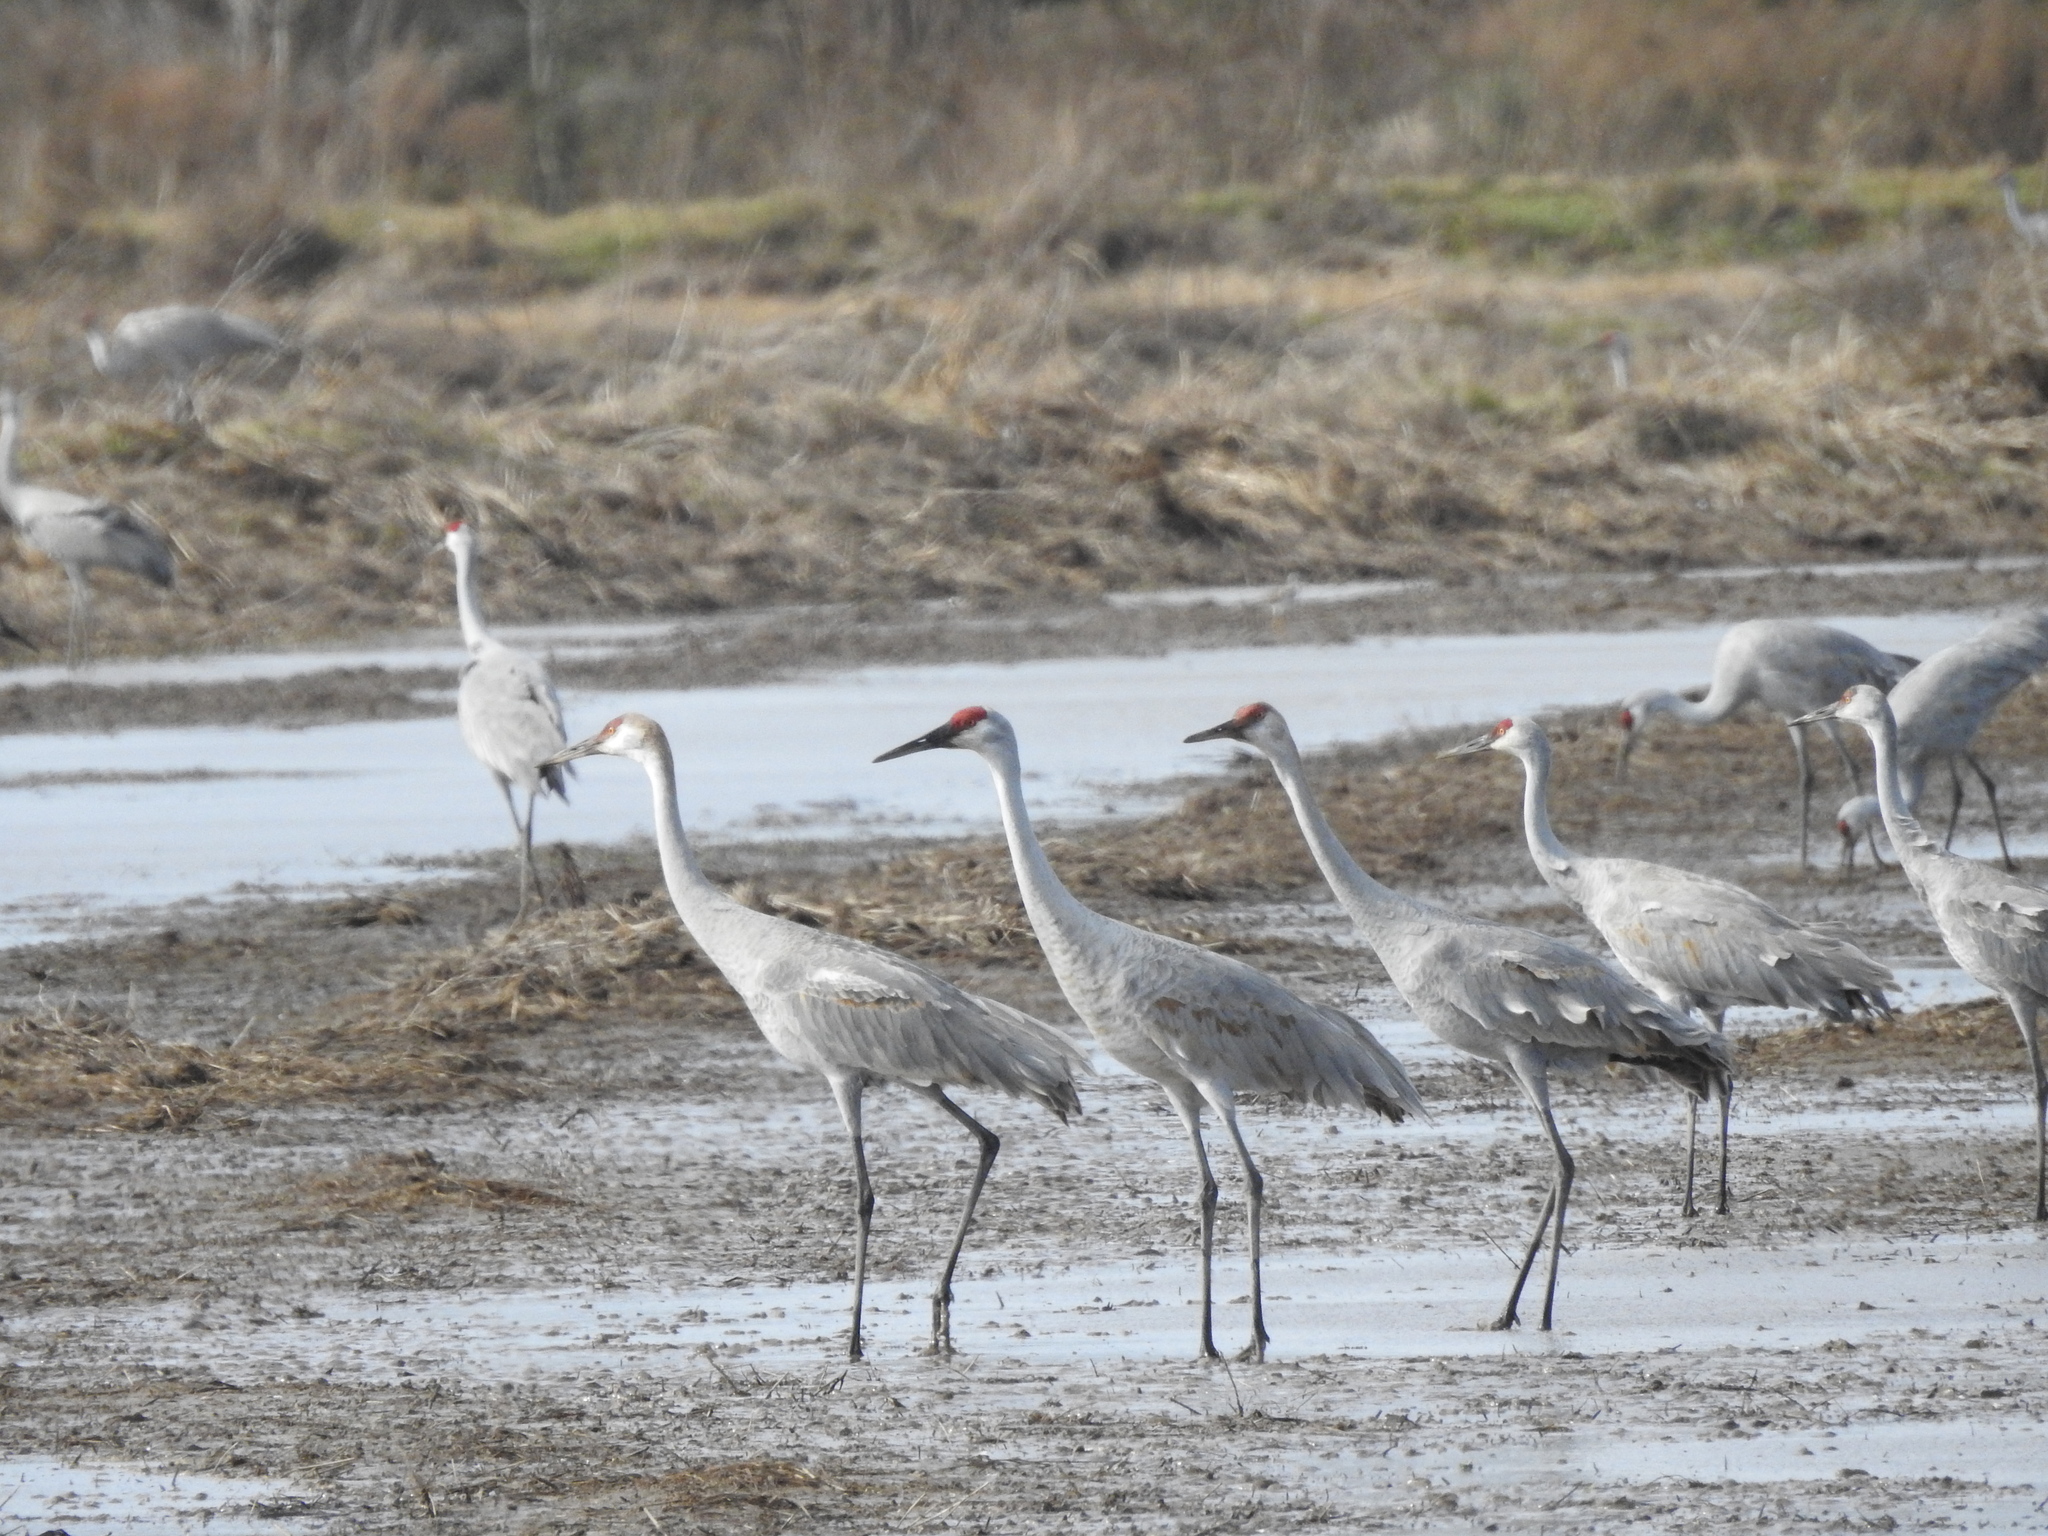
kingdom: Animalia
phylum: Chordata
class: Aves
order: Gruiformes
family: Gruidae
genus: Grus
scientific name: Grus canadensis
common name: Sandhill crane
